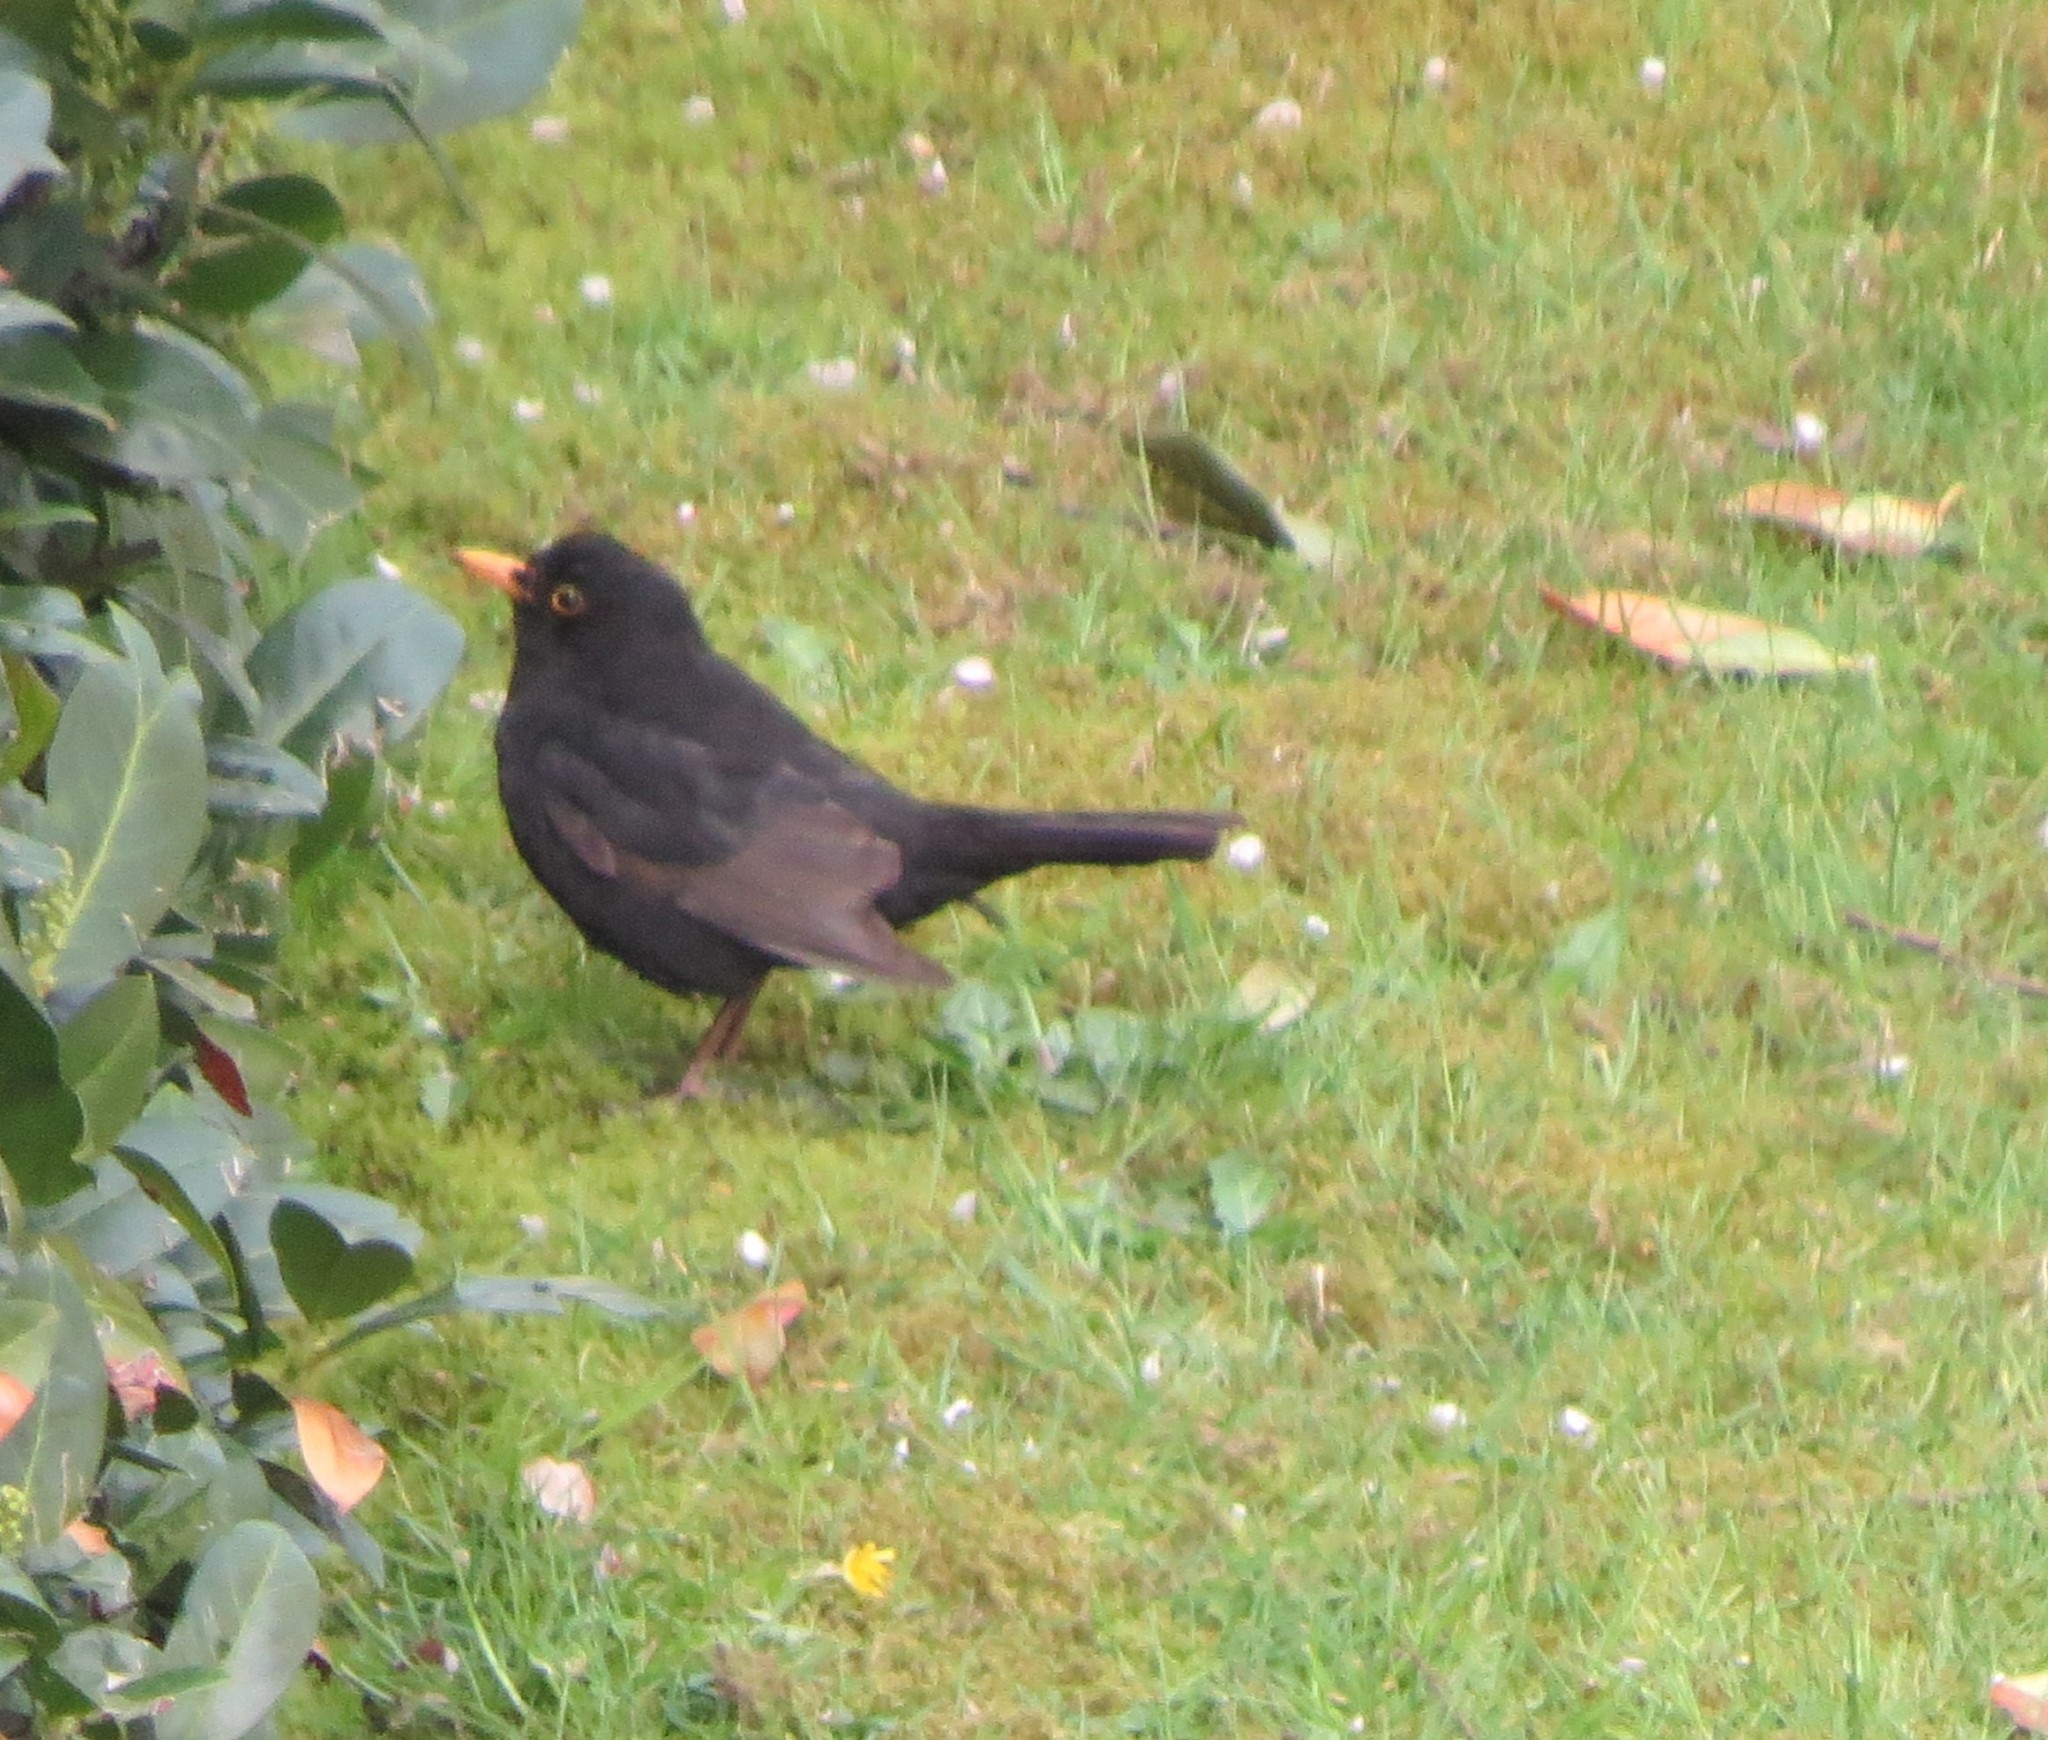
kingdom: Animalia
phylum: Chordata
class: Aves
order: Passeriformes
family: Turdidae
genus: Turdus
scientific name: Turdus merula
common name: Common blackbird
